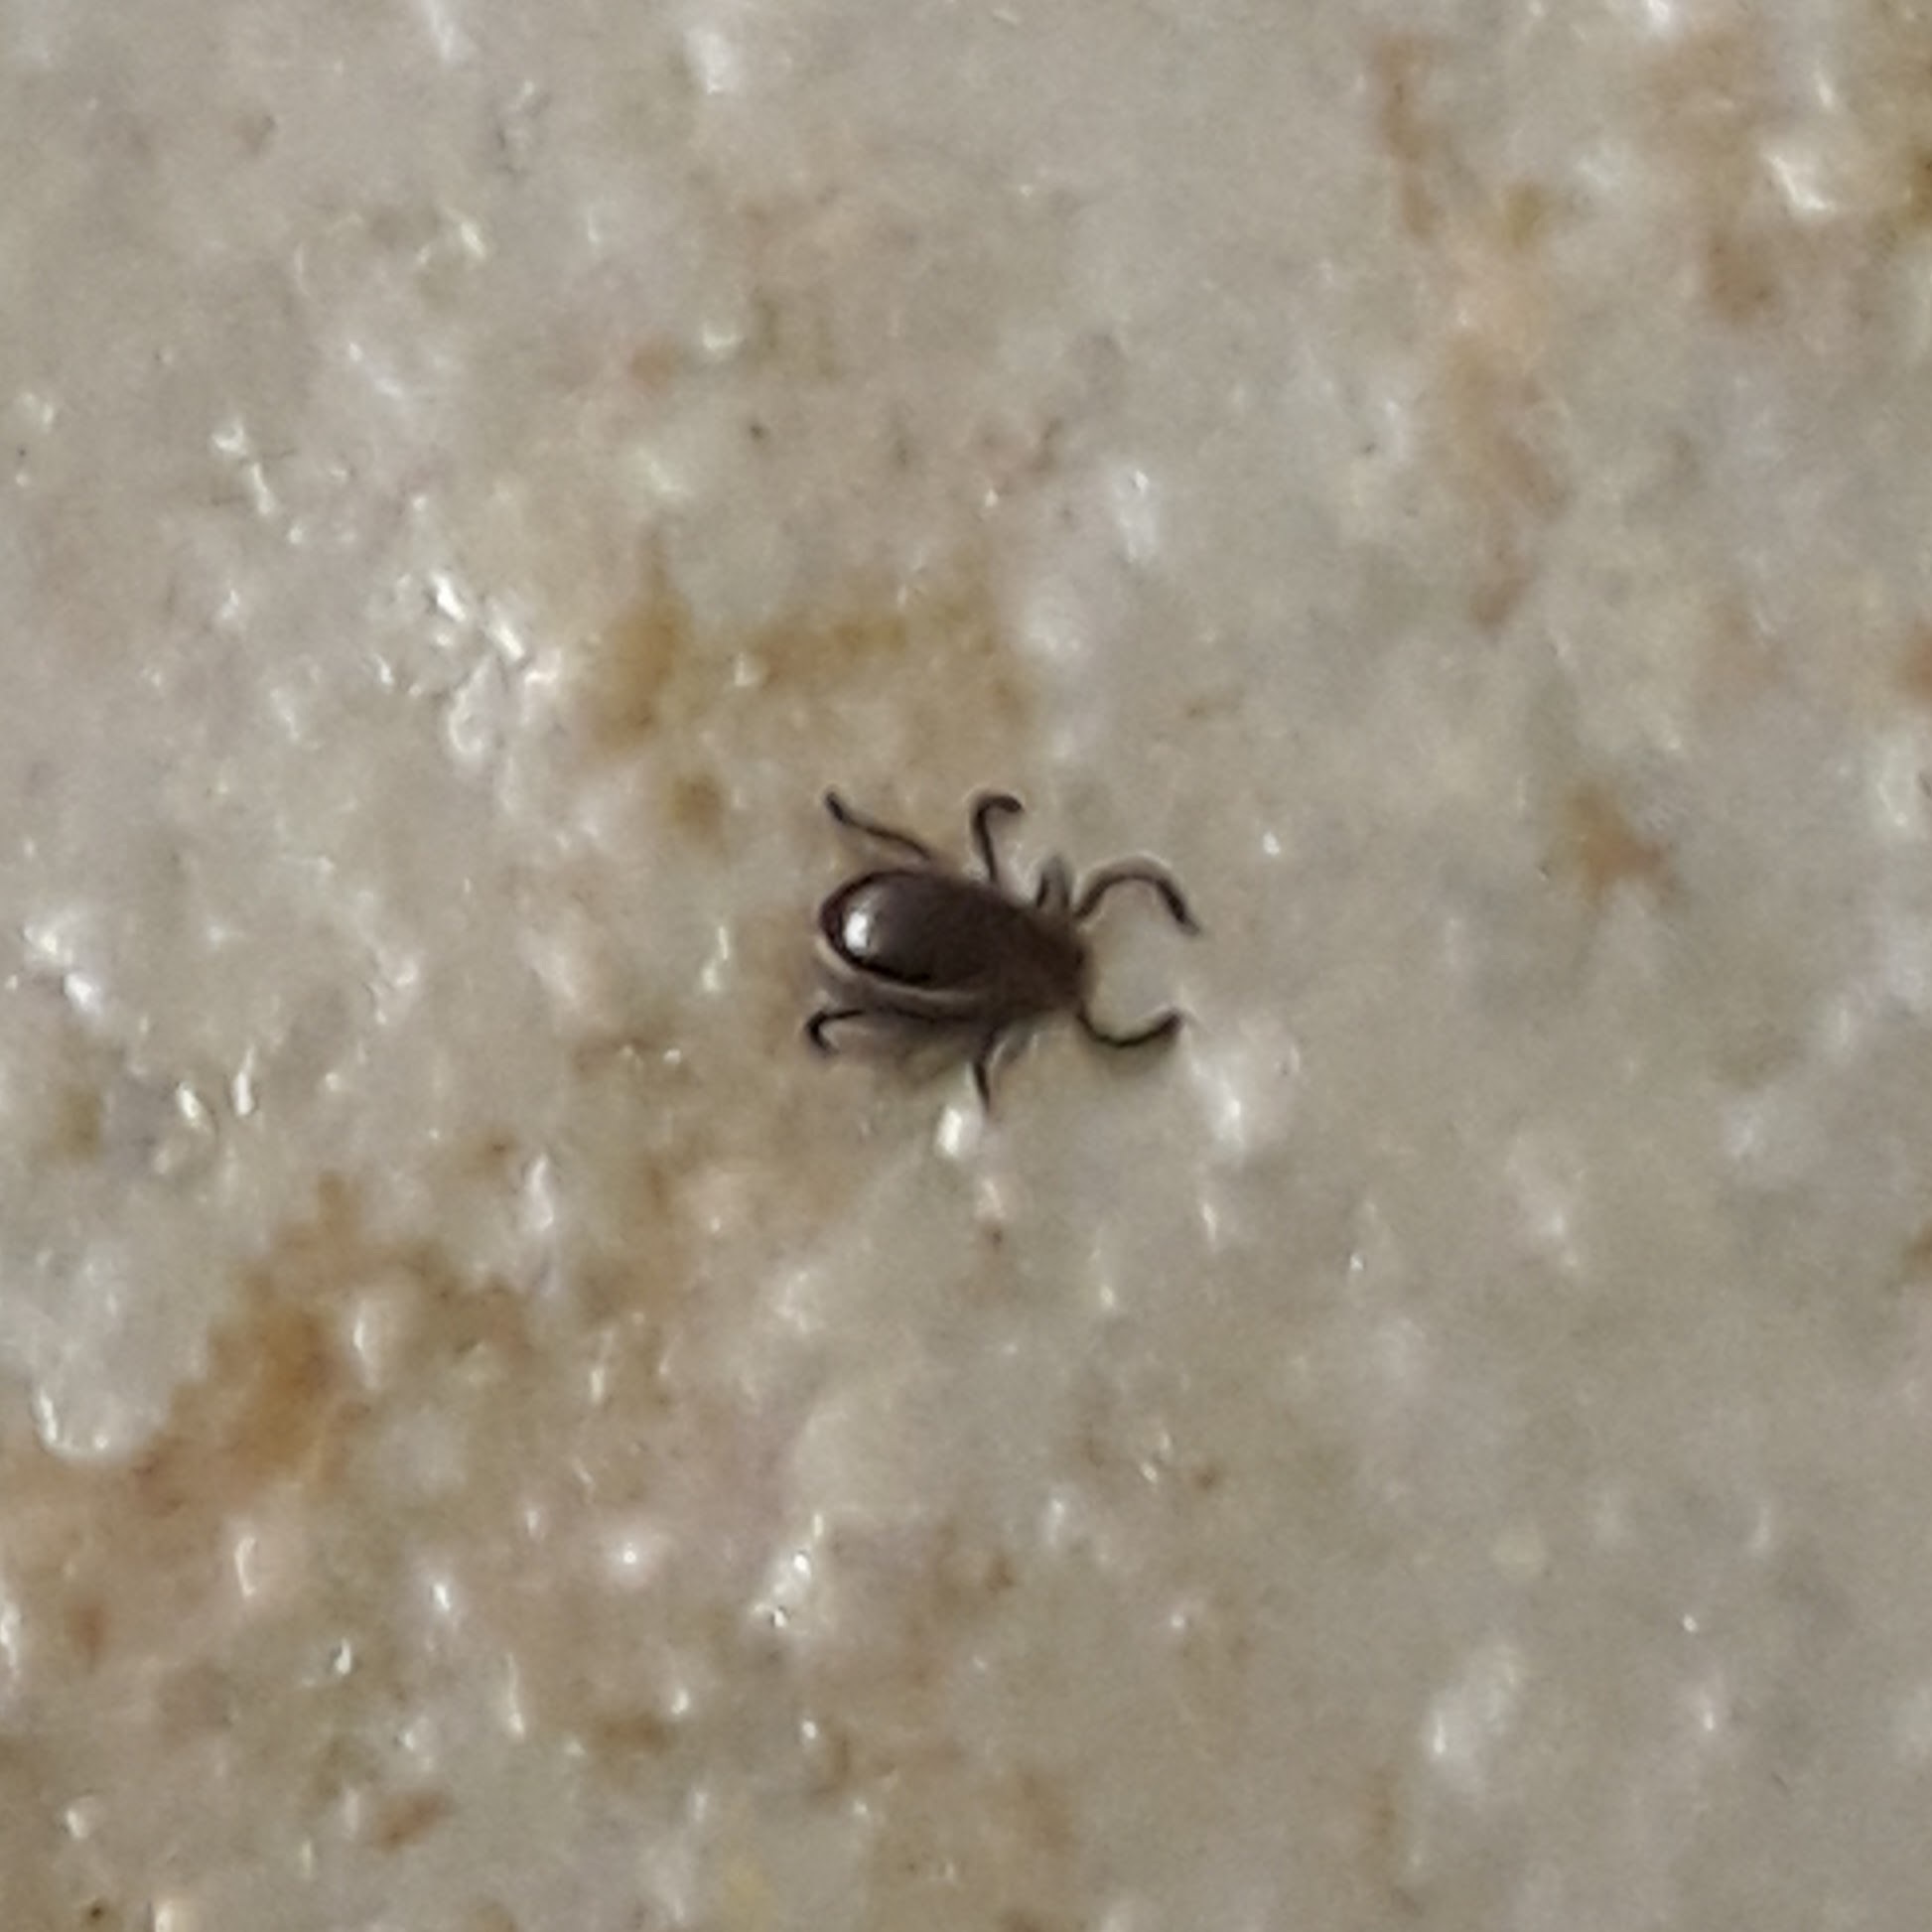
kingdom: Animalia
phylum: Arthropoda
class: Arachnida
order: Ixodida
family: Ixodidae
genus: Ixodes
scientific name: Ixodes scapularis
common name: Black legged tick
